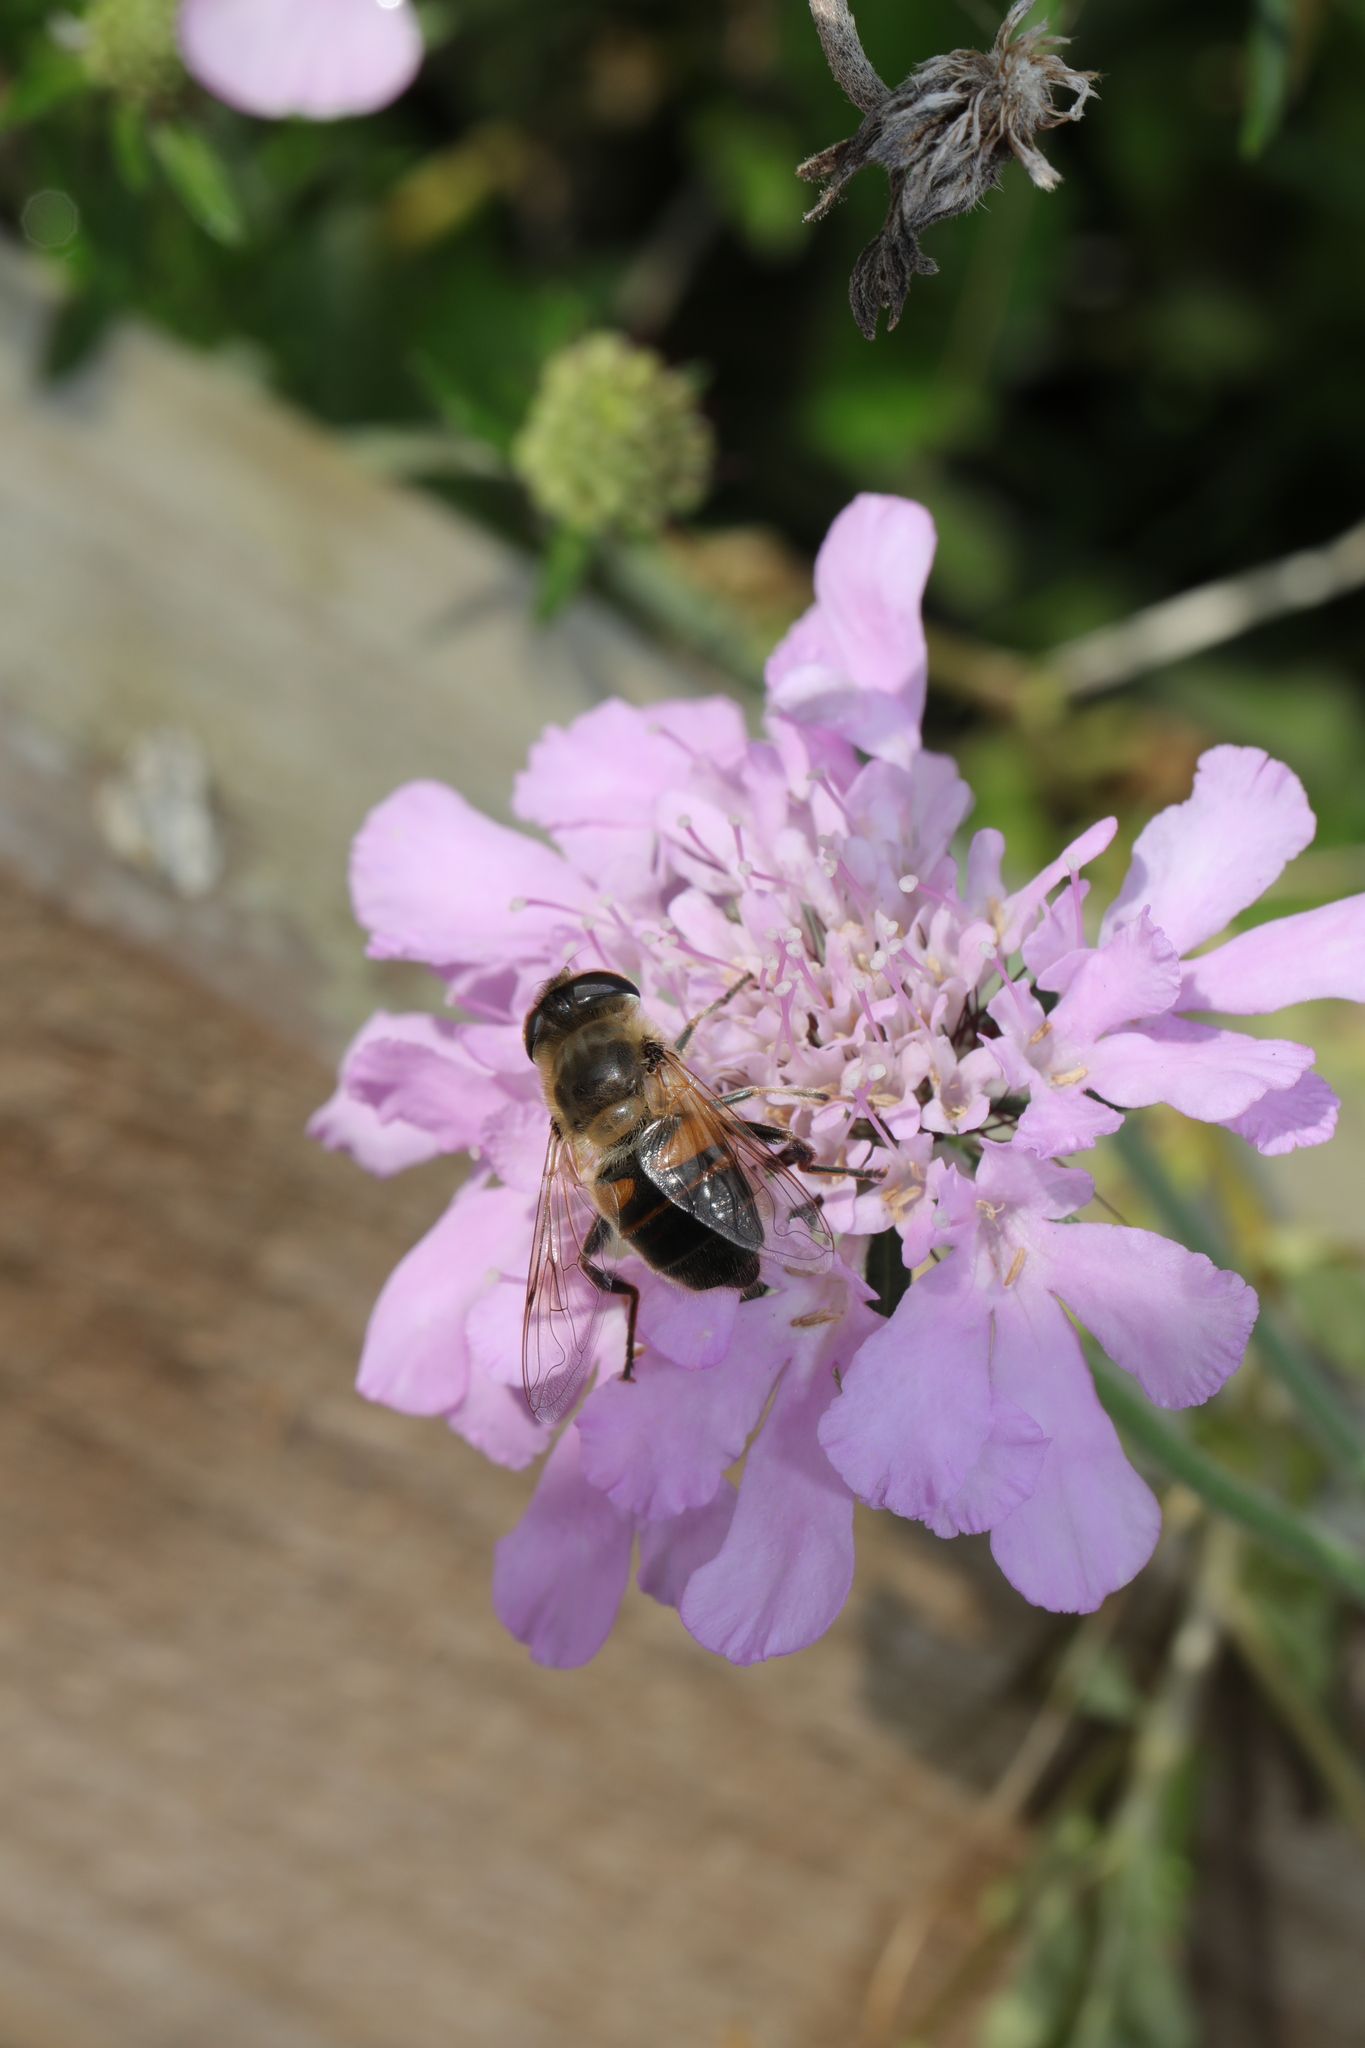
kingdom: Animalia
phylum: Arthropoda
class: Insecta
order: Diptera
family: Syrphidae
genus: Eristalis
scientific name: Eristalis tenax
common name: Drone fly
